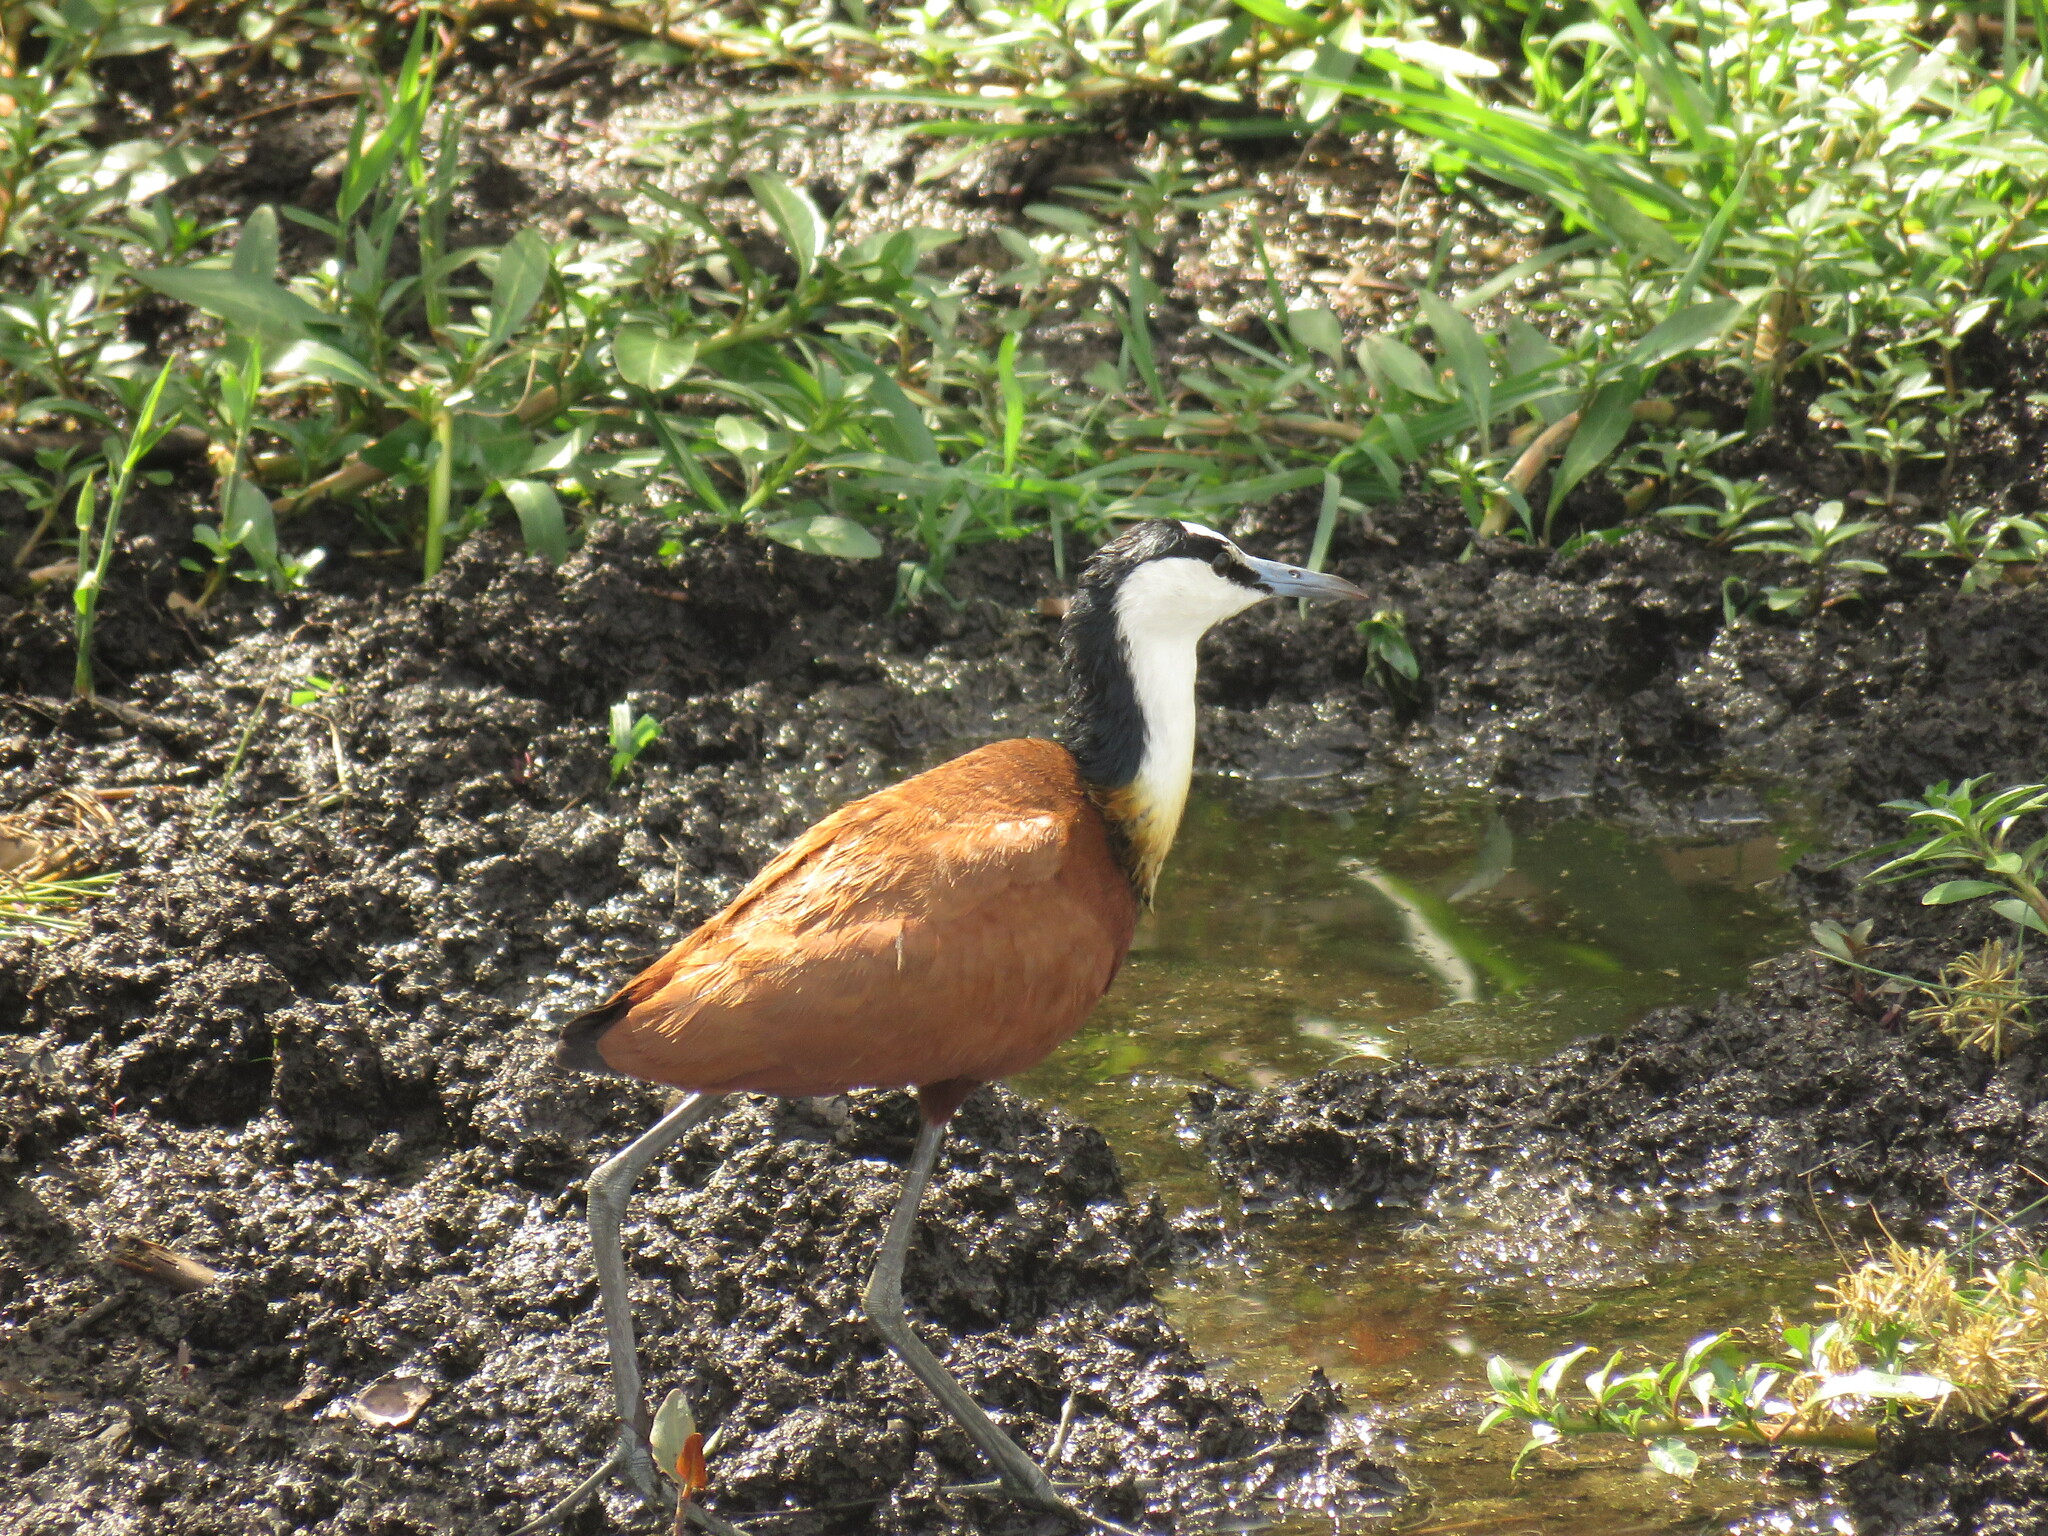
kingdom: Animalia
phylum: Chordata
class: Aves
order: Charadriiformes
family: Jacanidae
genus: Actophilornis
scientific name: Actophilornis africanus
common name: African jacana
